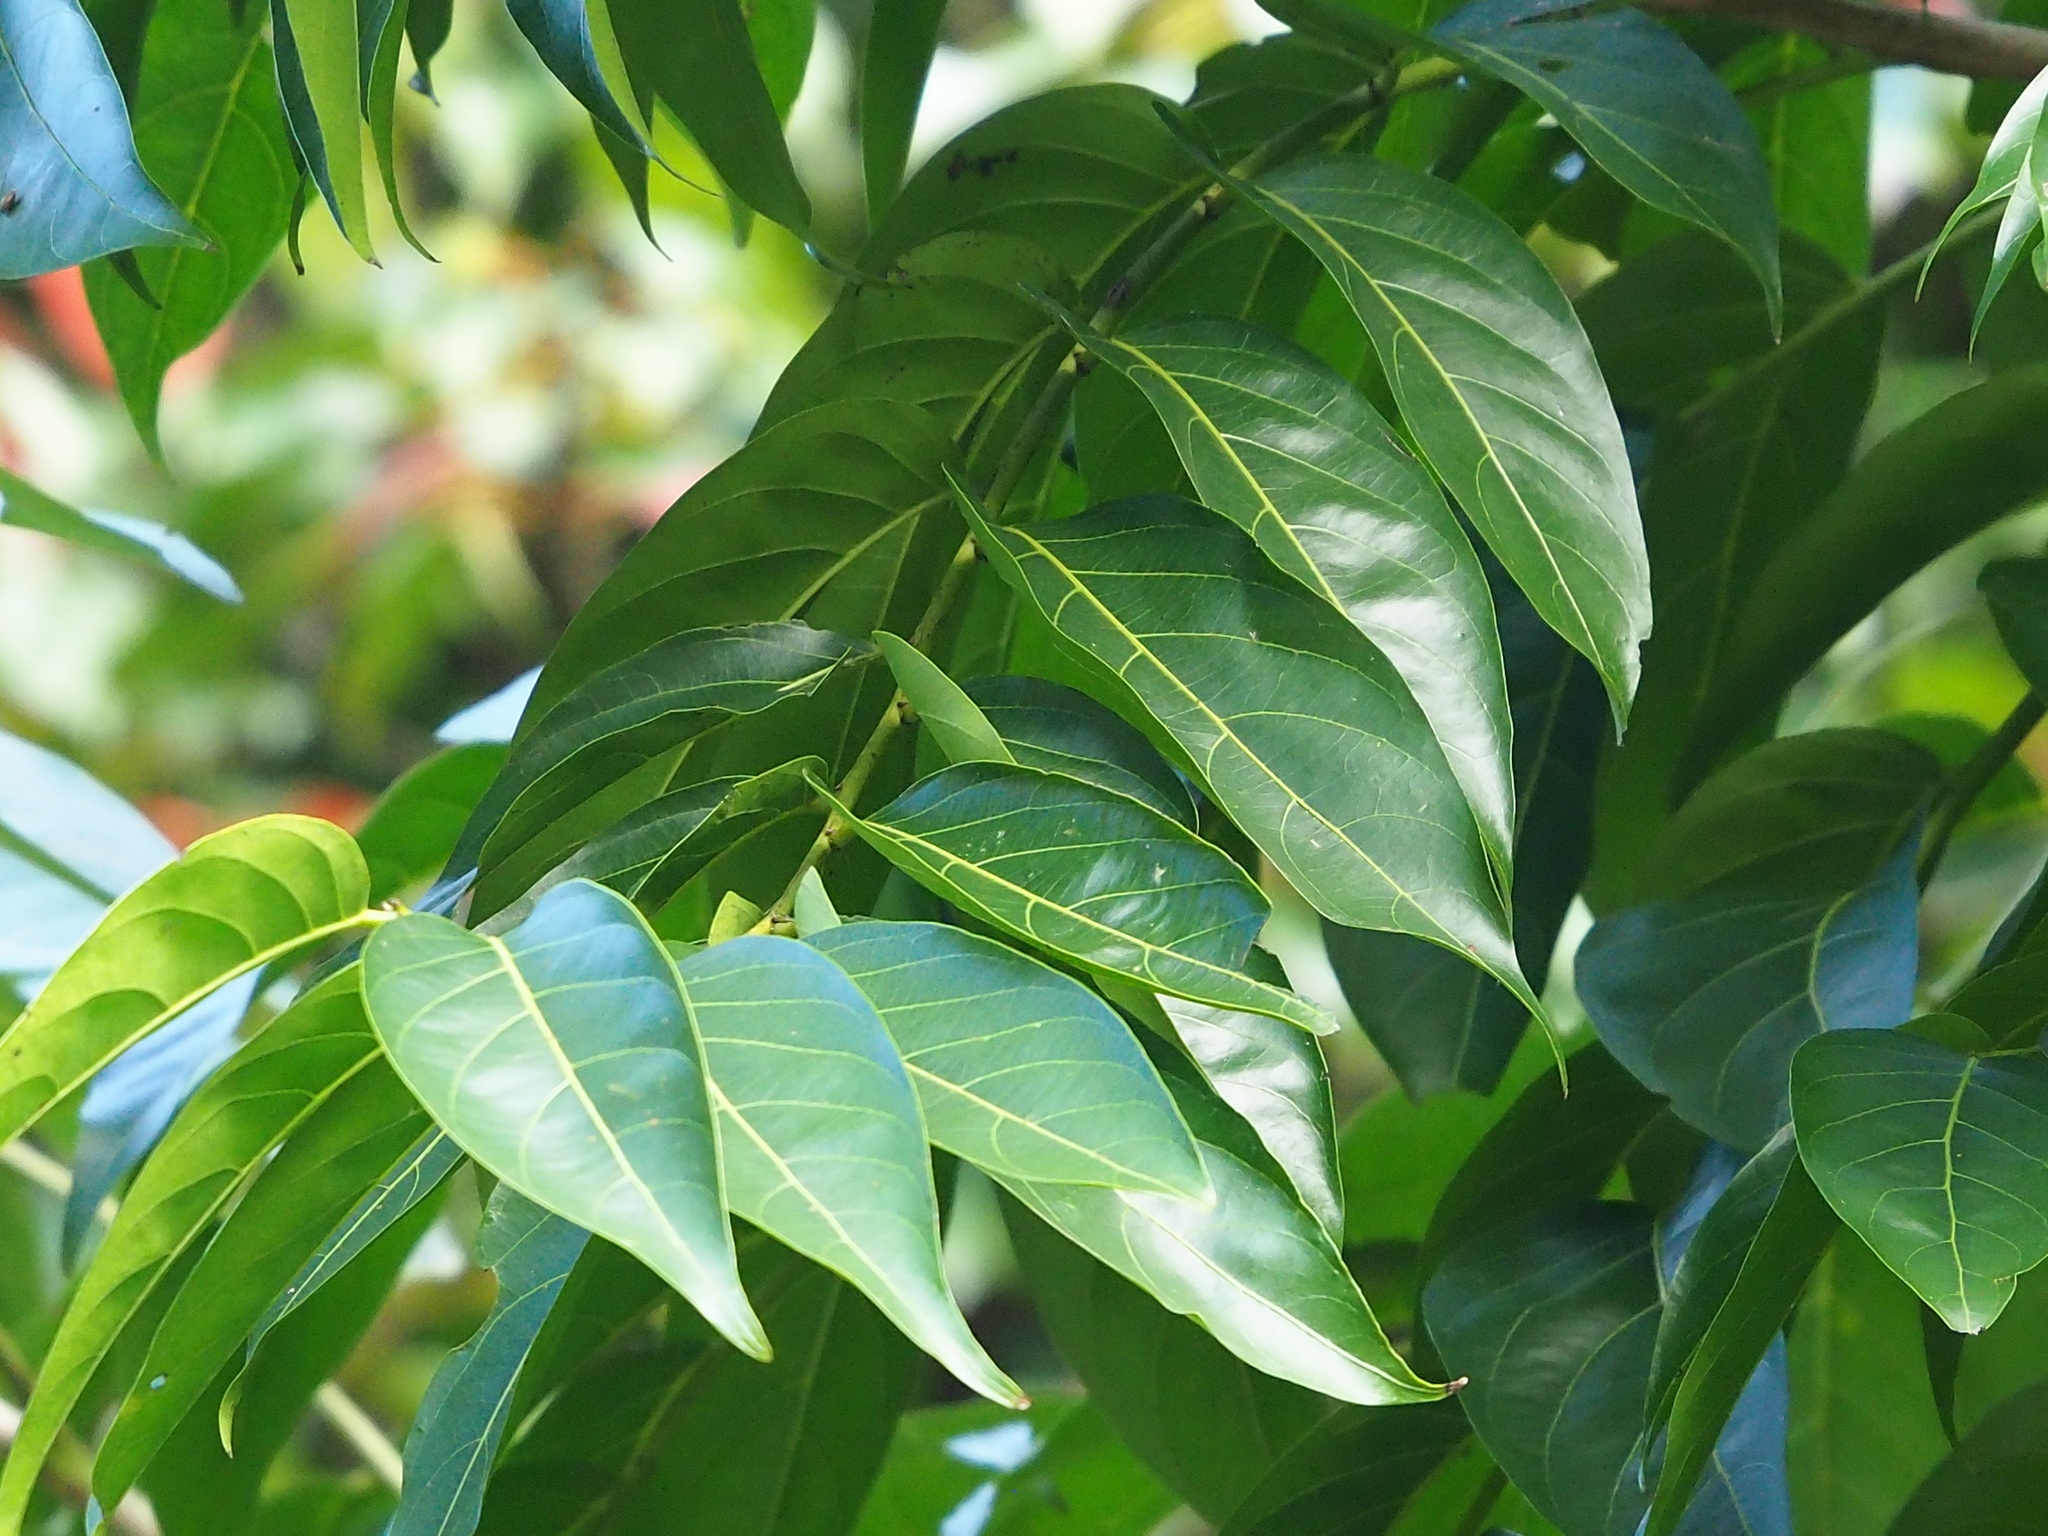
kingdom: Plantae
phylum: Tracheophyta
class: Magnoliopsida
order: Malpighiales
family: Phyllanthaceae
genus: Glochidion
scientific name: Glochidion lanceolatum
